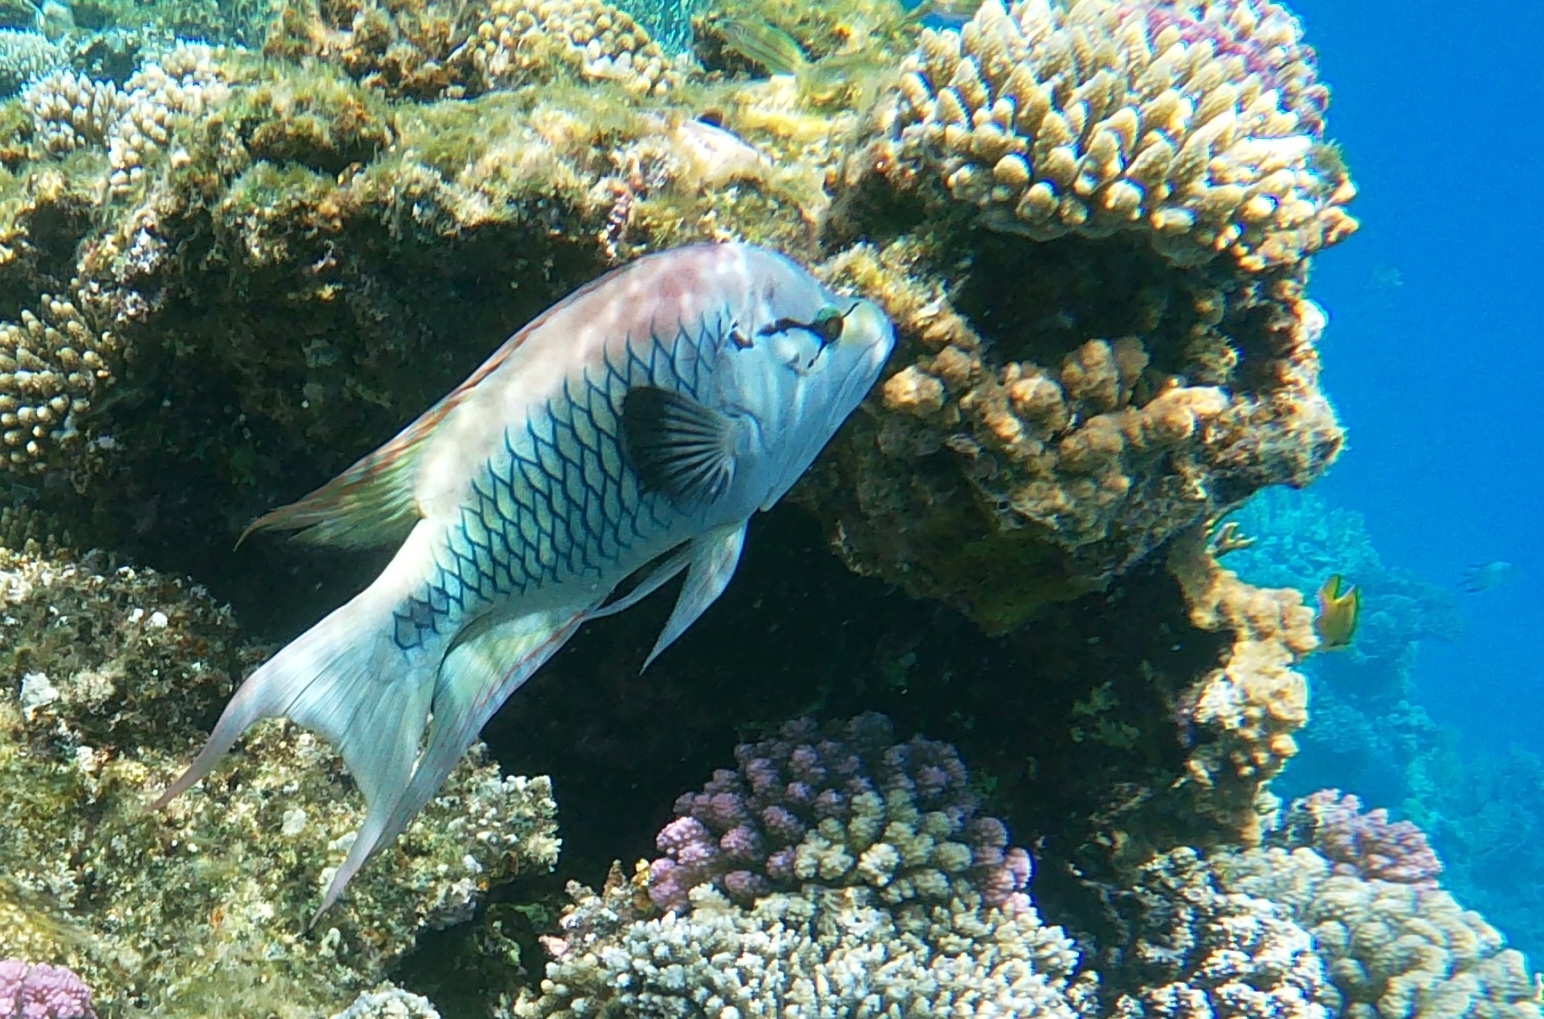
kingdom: Animalia
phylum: Chordata
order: Perciformes
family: Labridae
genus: Epibulus
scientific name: Epibulus insidiator
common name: Slingjaw wrasse
